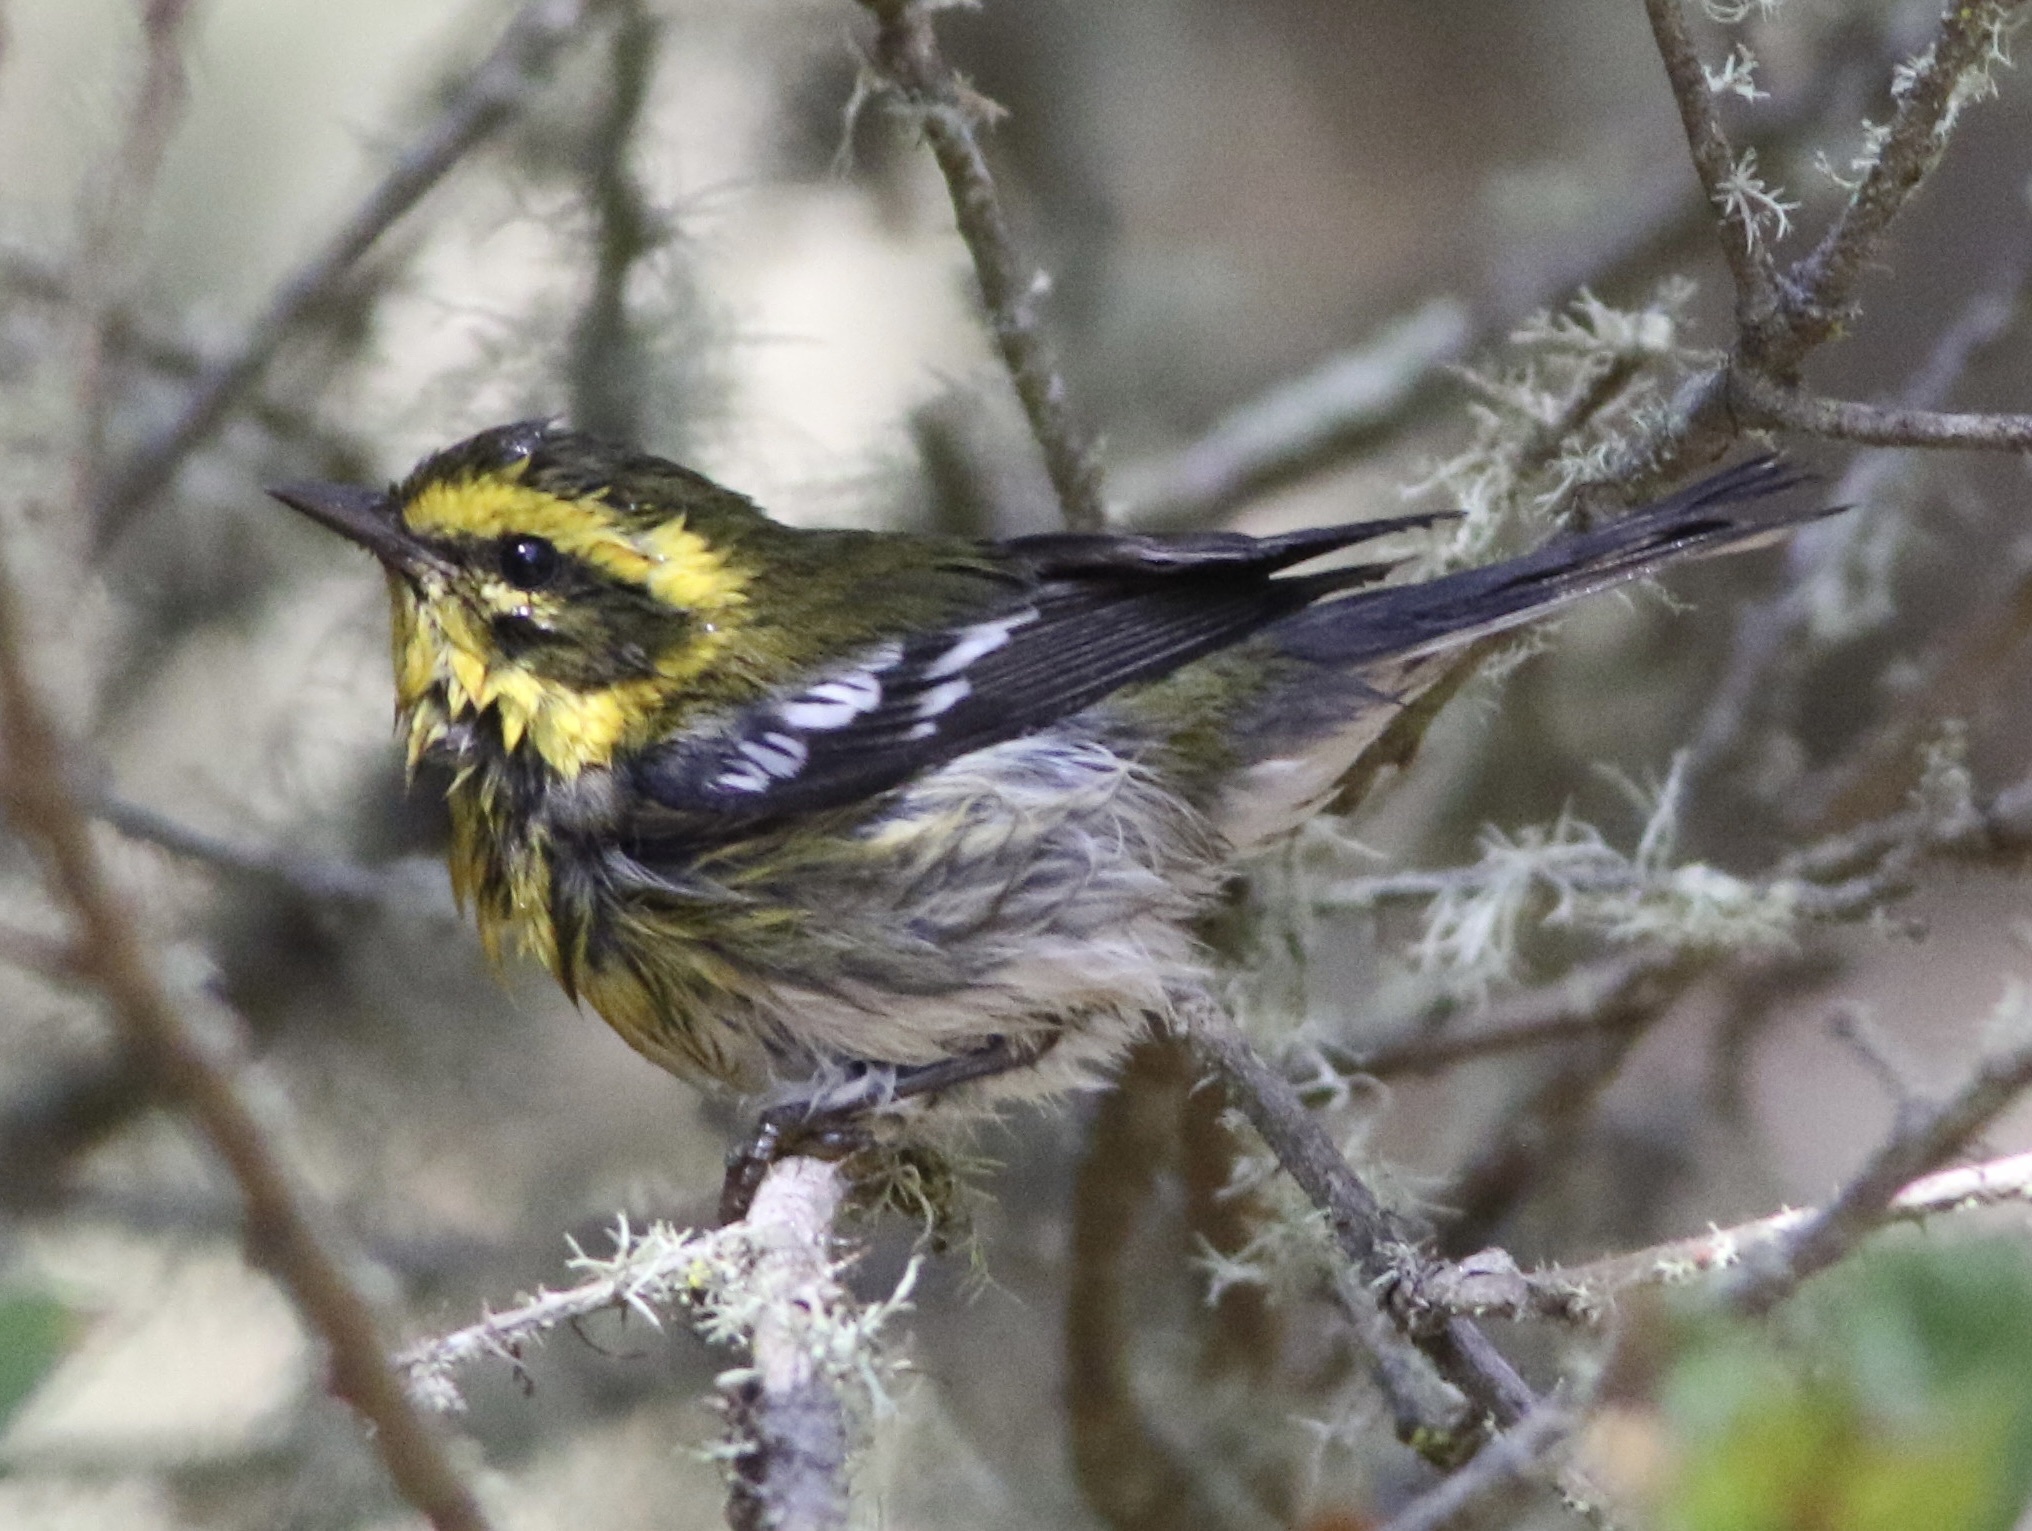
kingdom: Animalia
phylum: Chordata
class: Aves
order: Passeriformes
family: Parulidae
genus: Setophaga
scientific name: Setophaga townsendi
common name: Townsend's warbler
